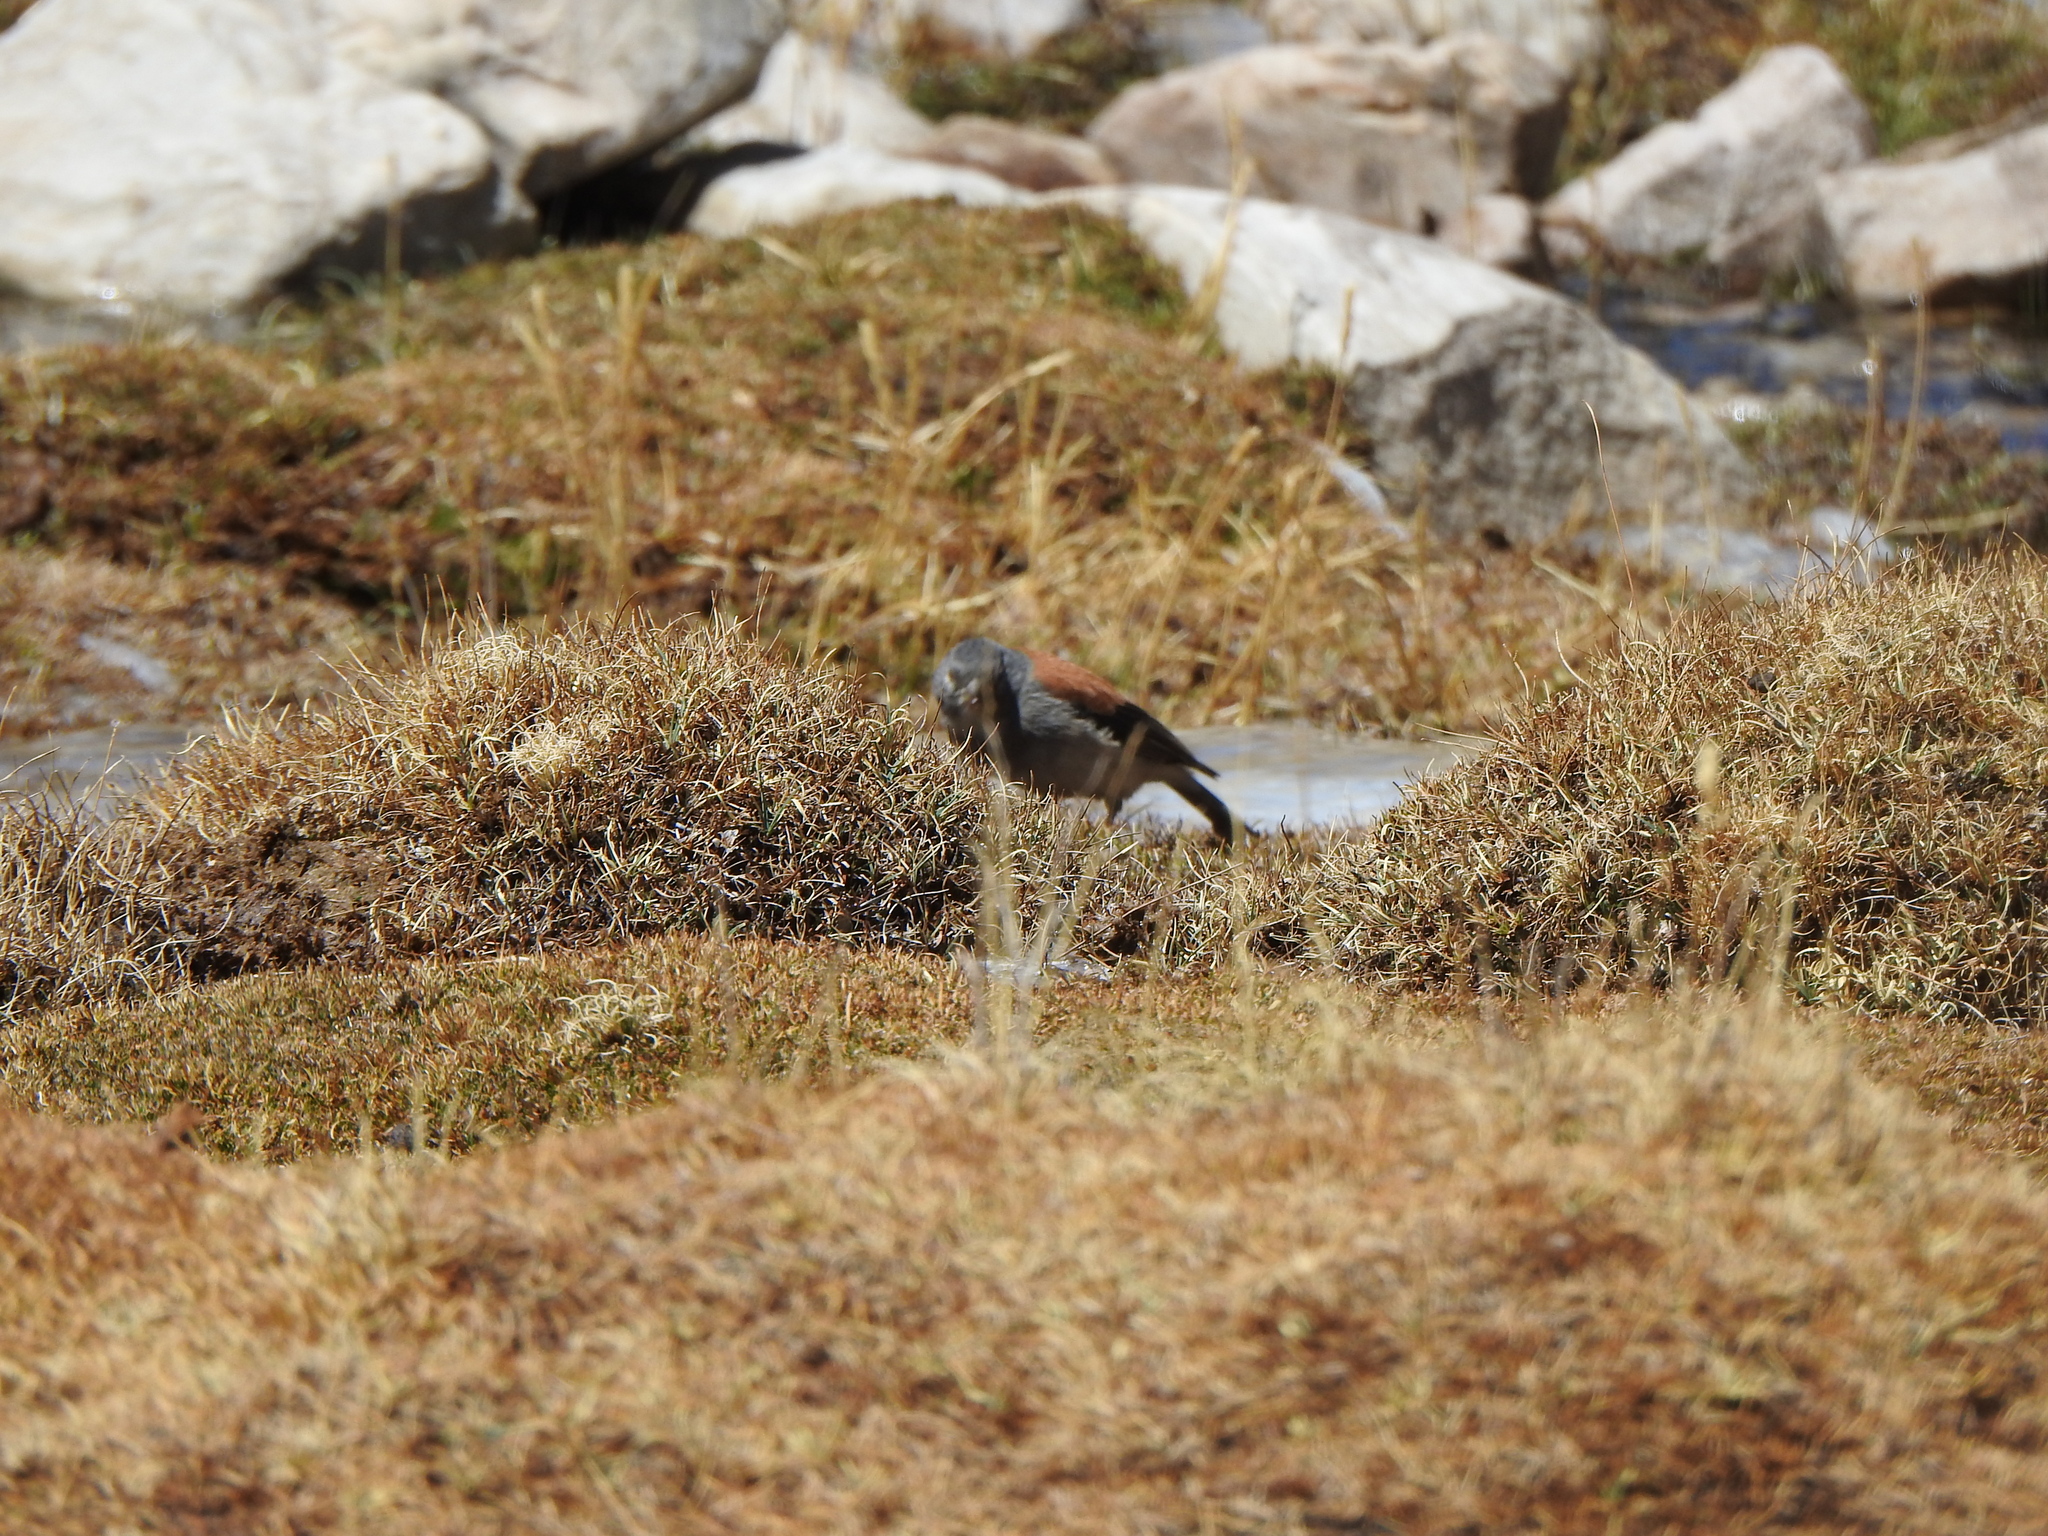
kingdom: Animalia
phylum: Chordata
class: Aves
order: Passeriformes
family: Thraupidae
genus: Idiopsar
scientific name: Idiopsar dorsalis
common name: Red-backed sierra finch
